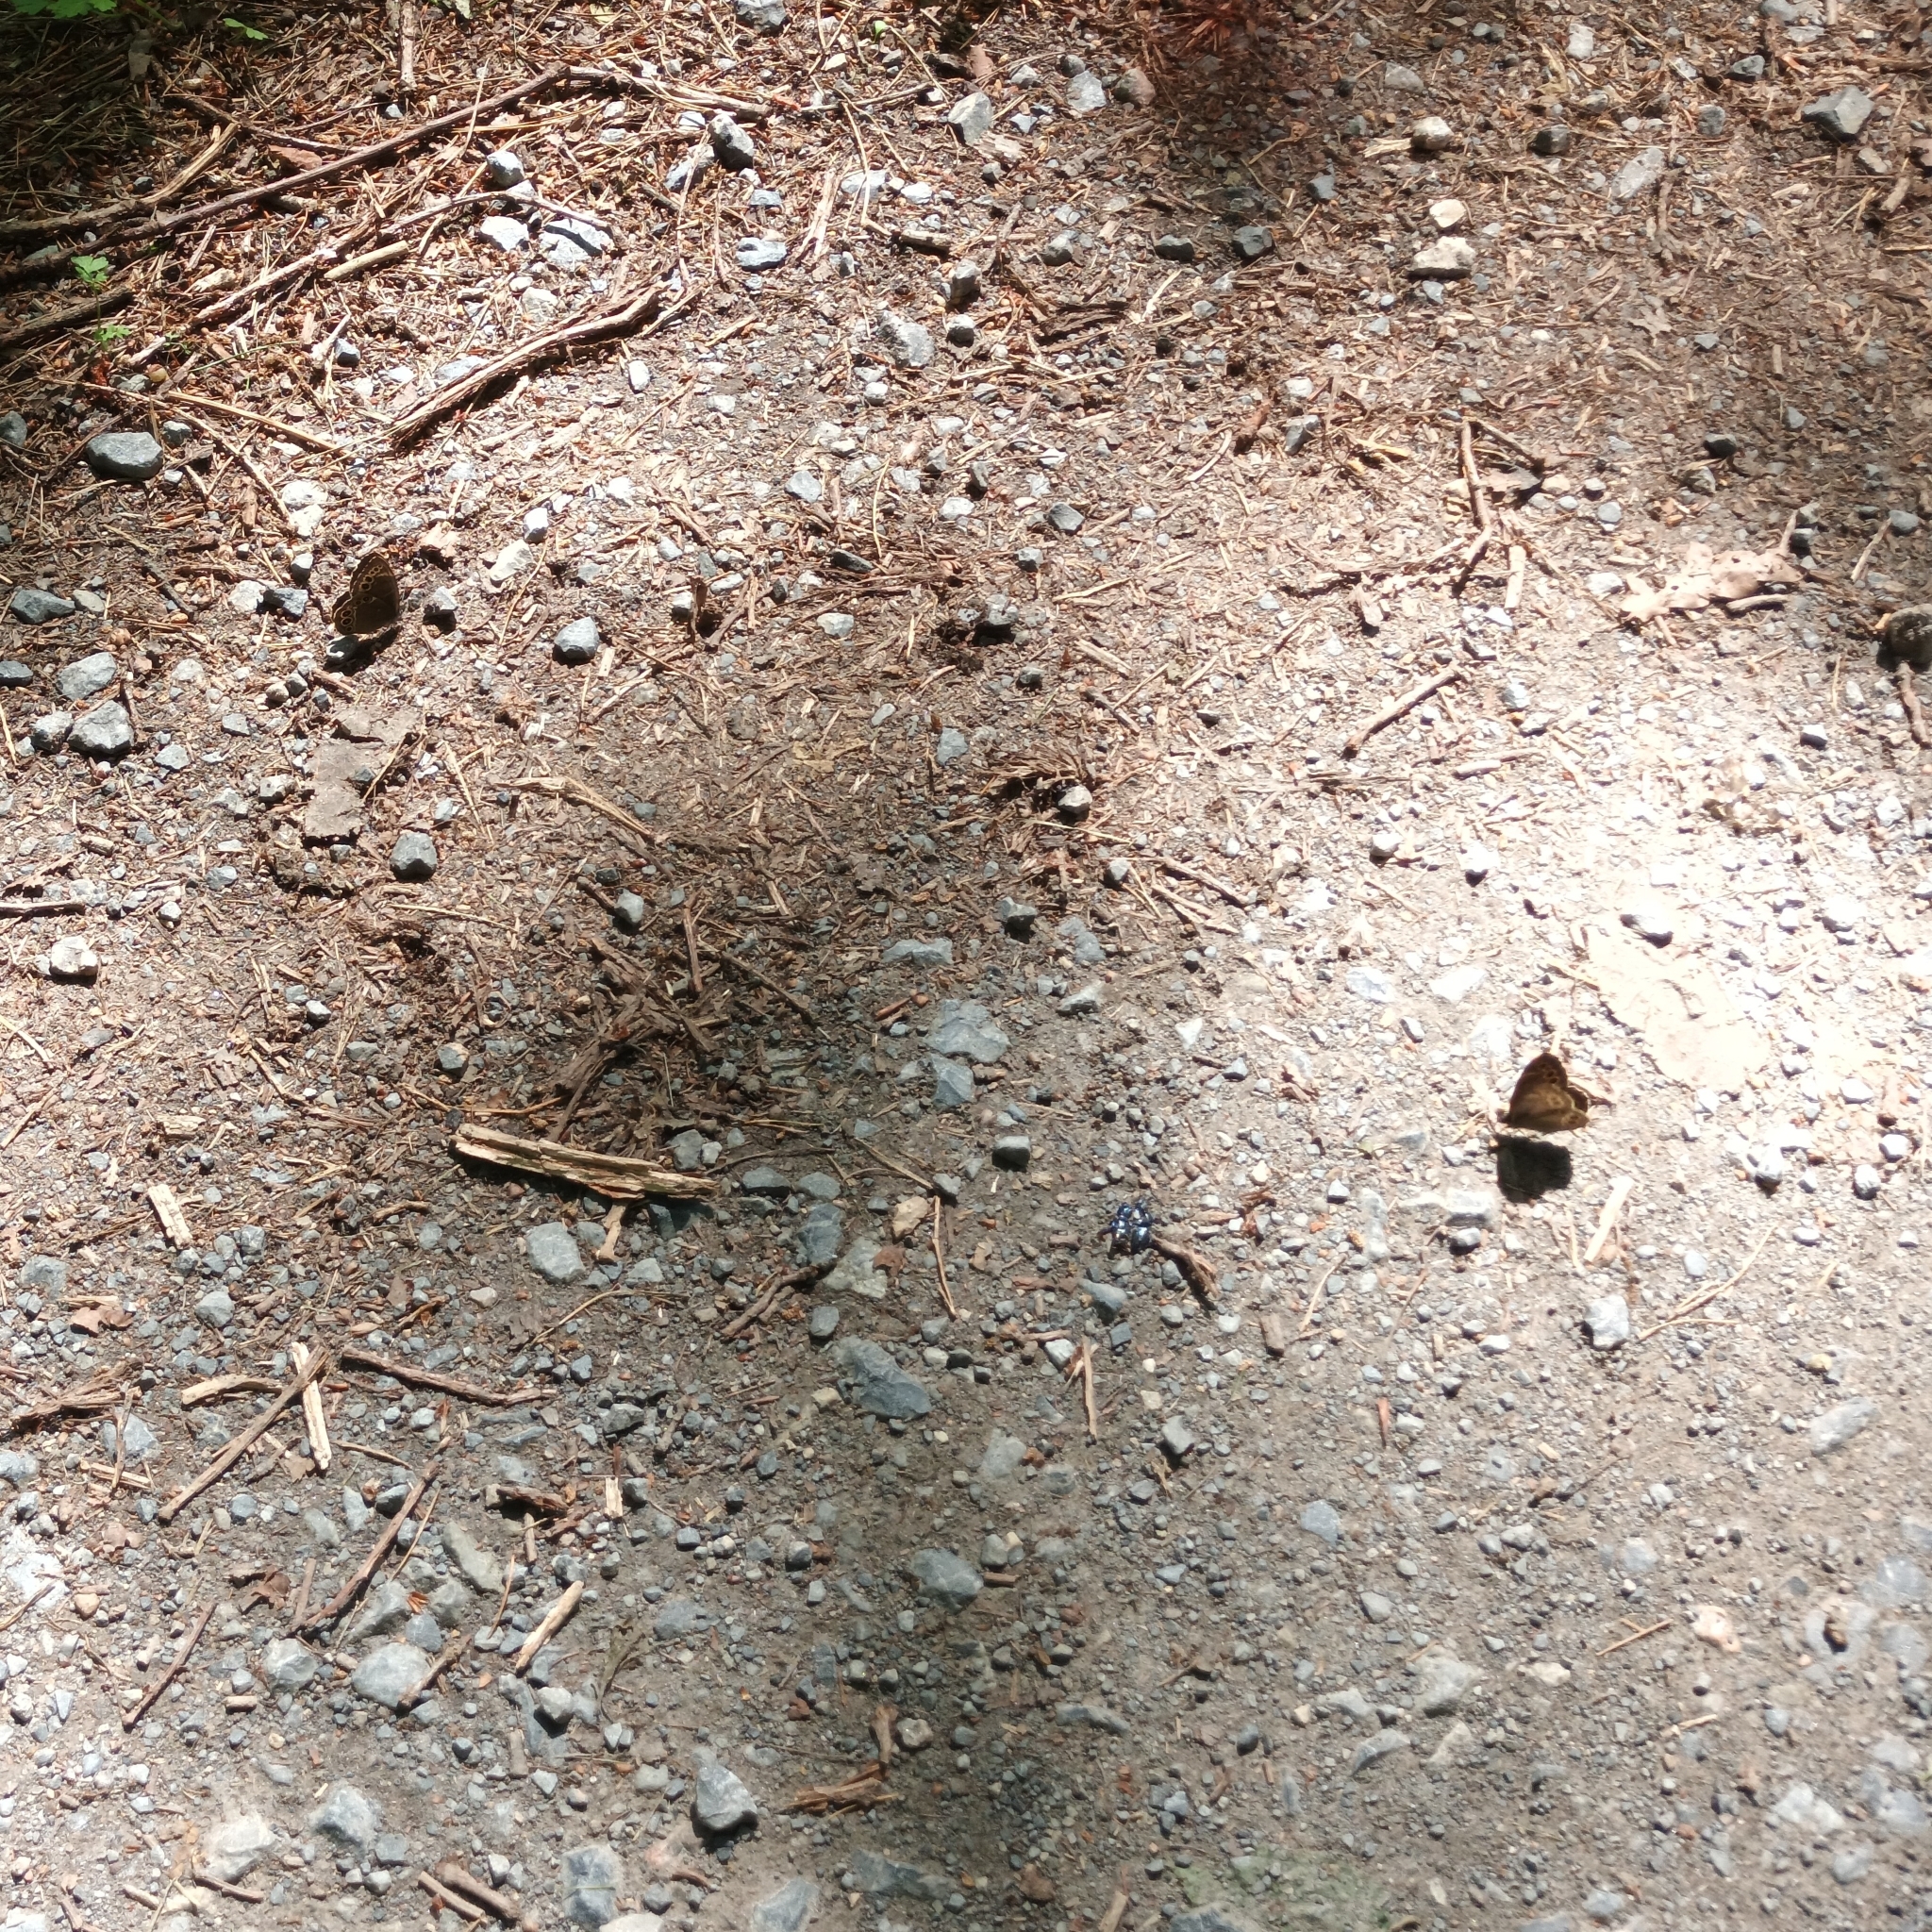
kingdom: Animalia
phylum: Arthropoda
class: Insecta
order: Lepidoptera
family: Nymphalidae
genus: Pararge
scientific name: Pararge Lopinga achine
